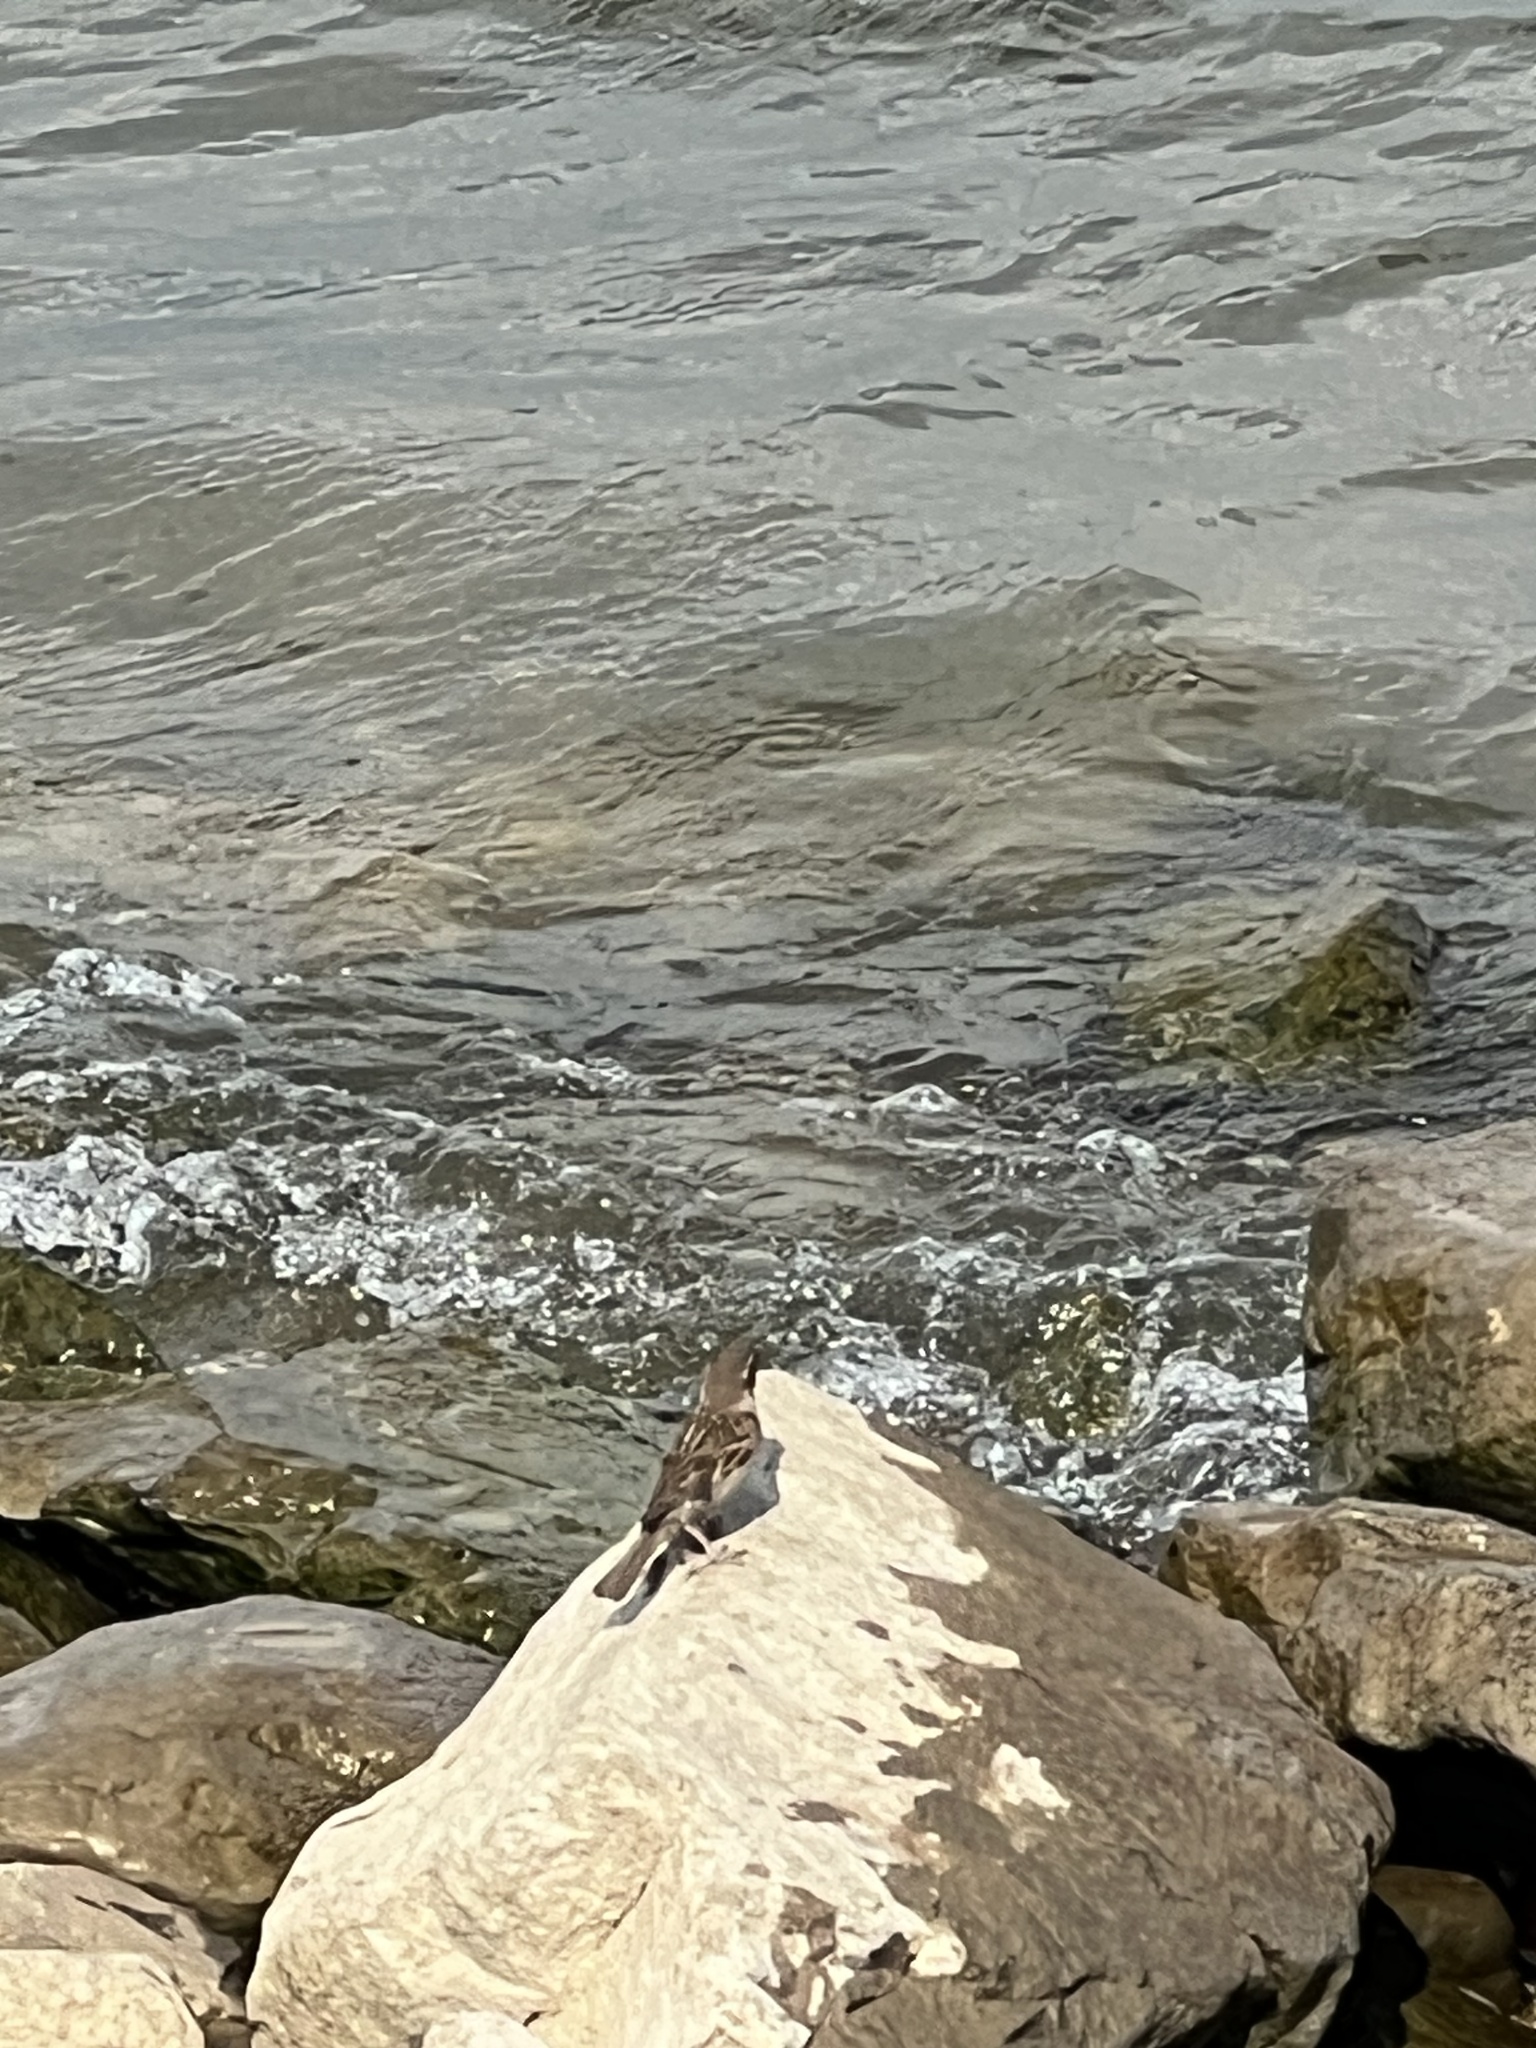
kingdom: Animalia
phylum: Chordata
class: Aves
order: Passeriformes
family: Passeridae
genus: Passer
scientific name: Passer domesticus
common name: House sparrow
